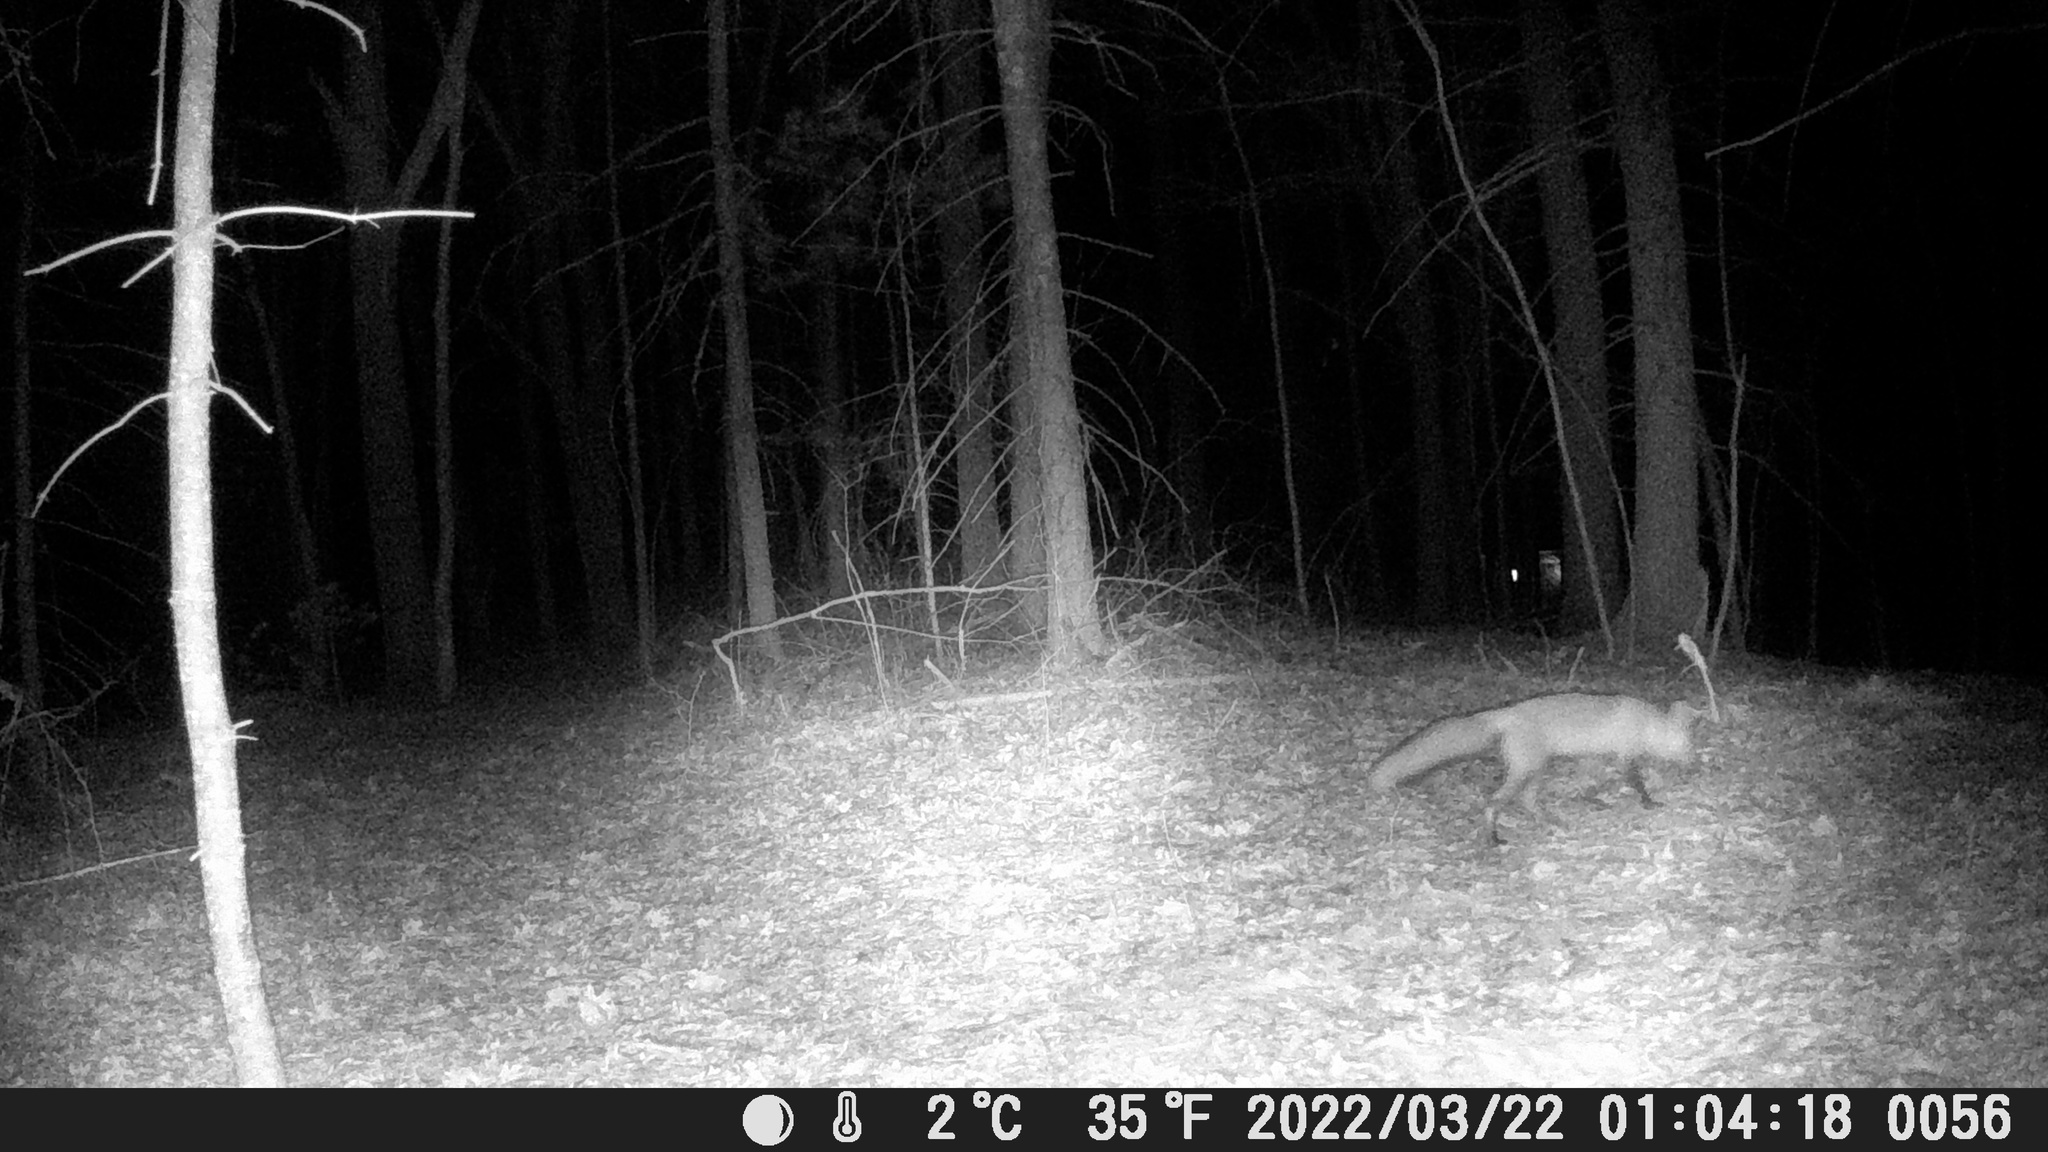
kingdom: Animalia
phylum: Chordata
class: Mammalia
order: Carnivora
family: Canidae
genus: Vulpes
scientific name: Vulpes vulpes
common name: Red fox
